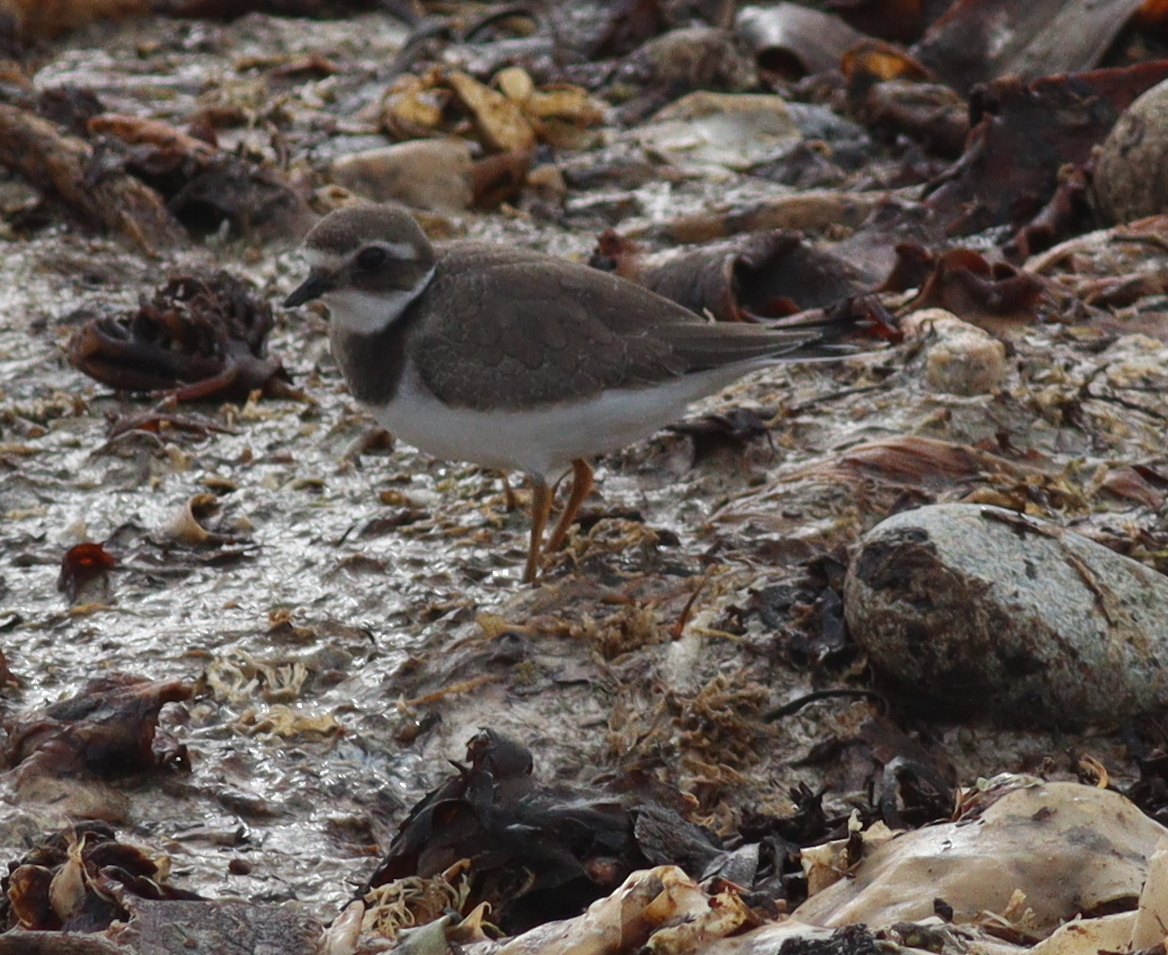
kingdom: Animalia
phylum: Chordata
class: Aves
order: Charadriiformes
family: Charadriidae
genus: Charadrius
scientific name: Charadrius hiaticula
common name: Common ringed plover
